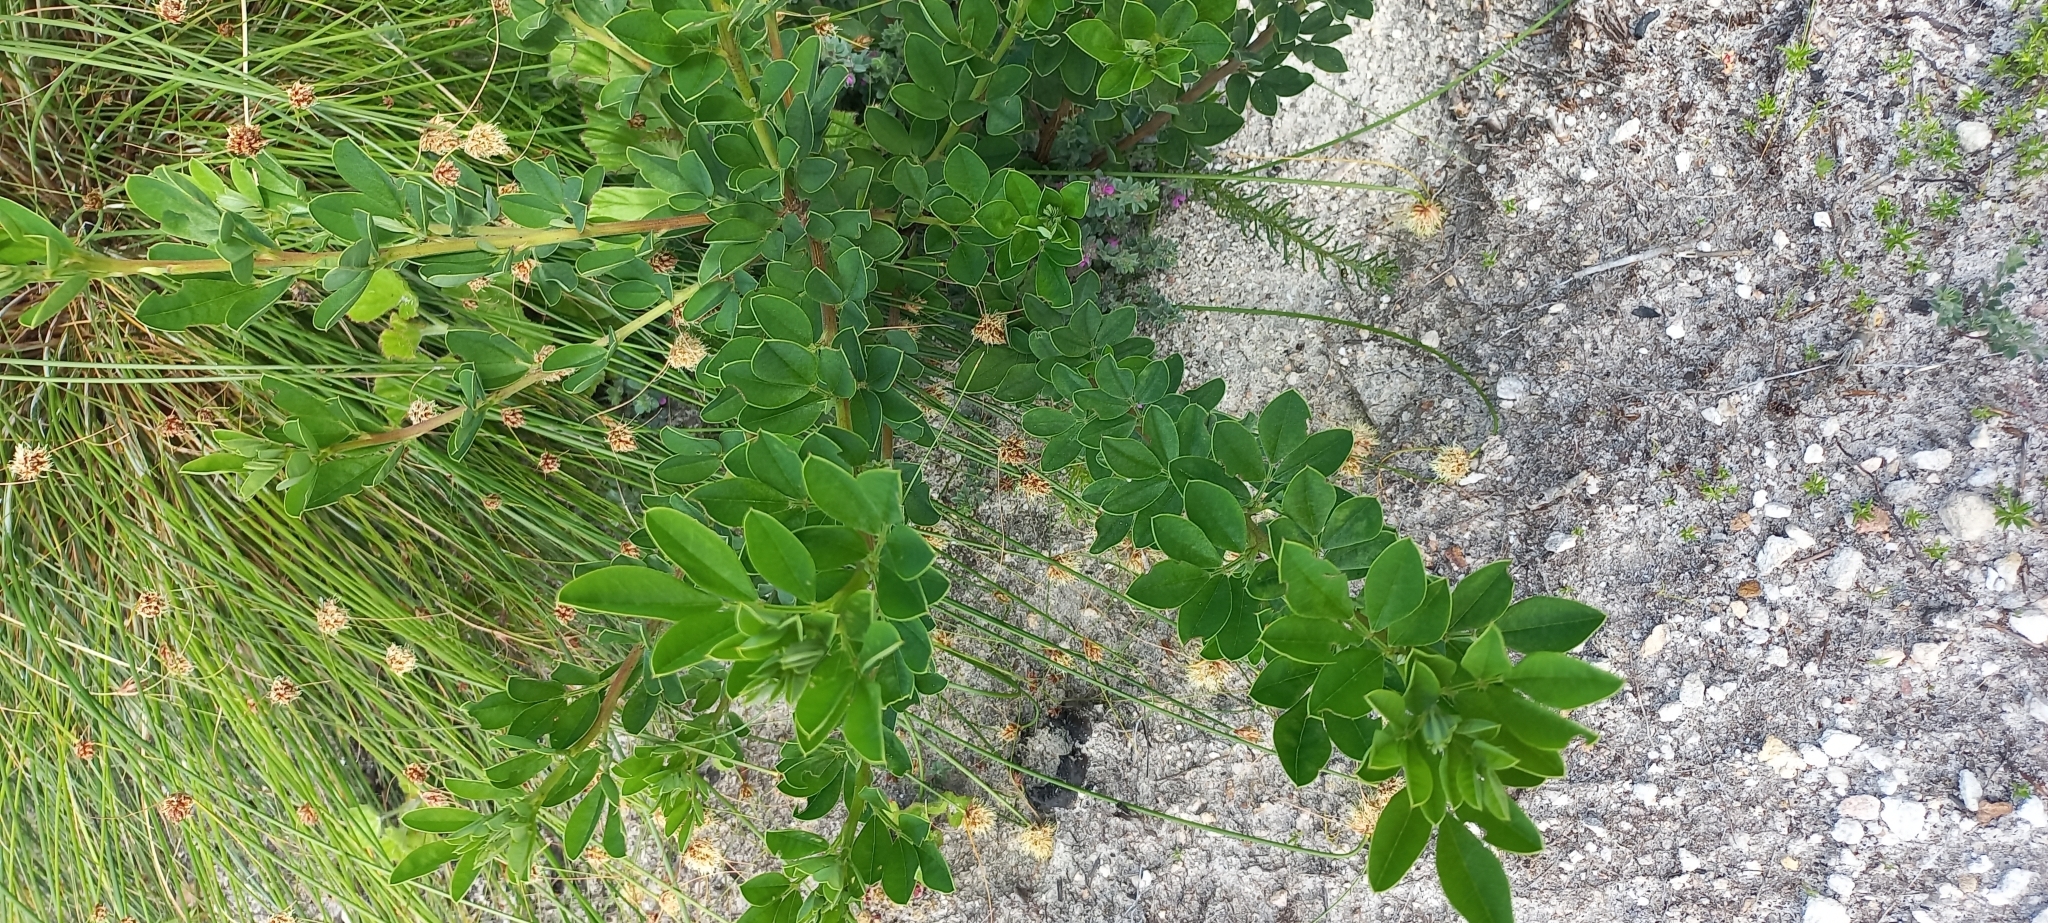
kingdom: Plantae
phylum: Tracheophyta
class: Magnoliopsida
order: Fabales
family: Fabaceae
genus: Indigofera
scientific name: Indigofera cytisoides
